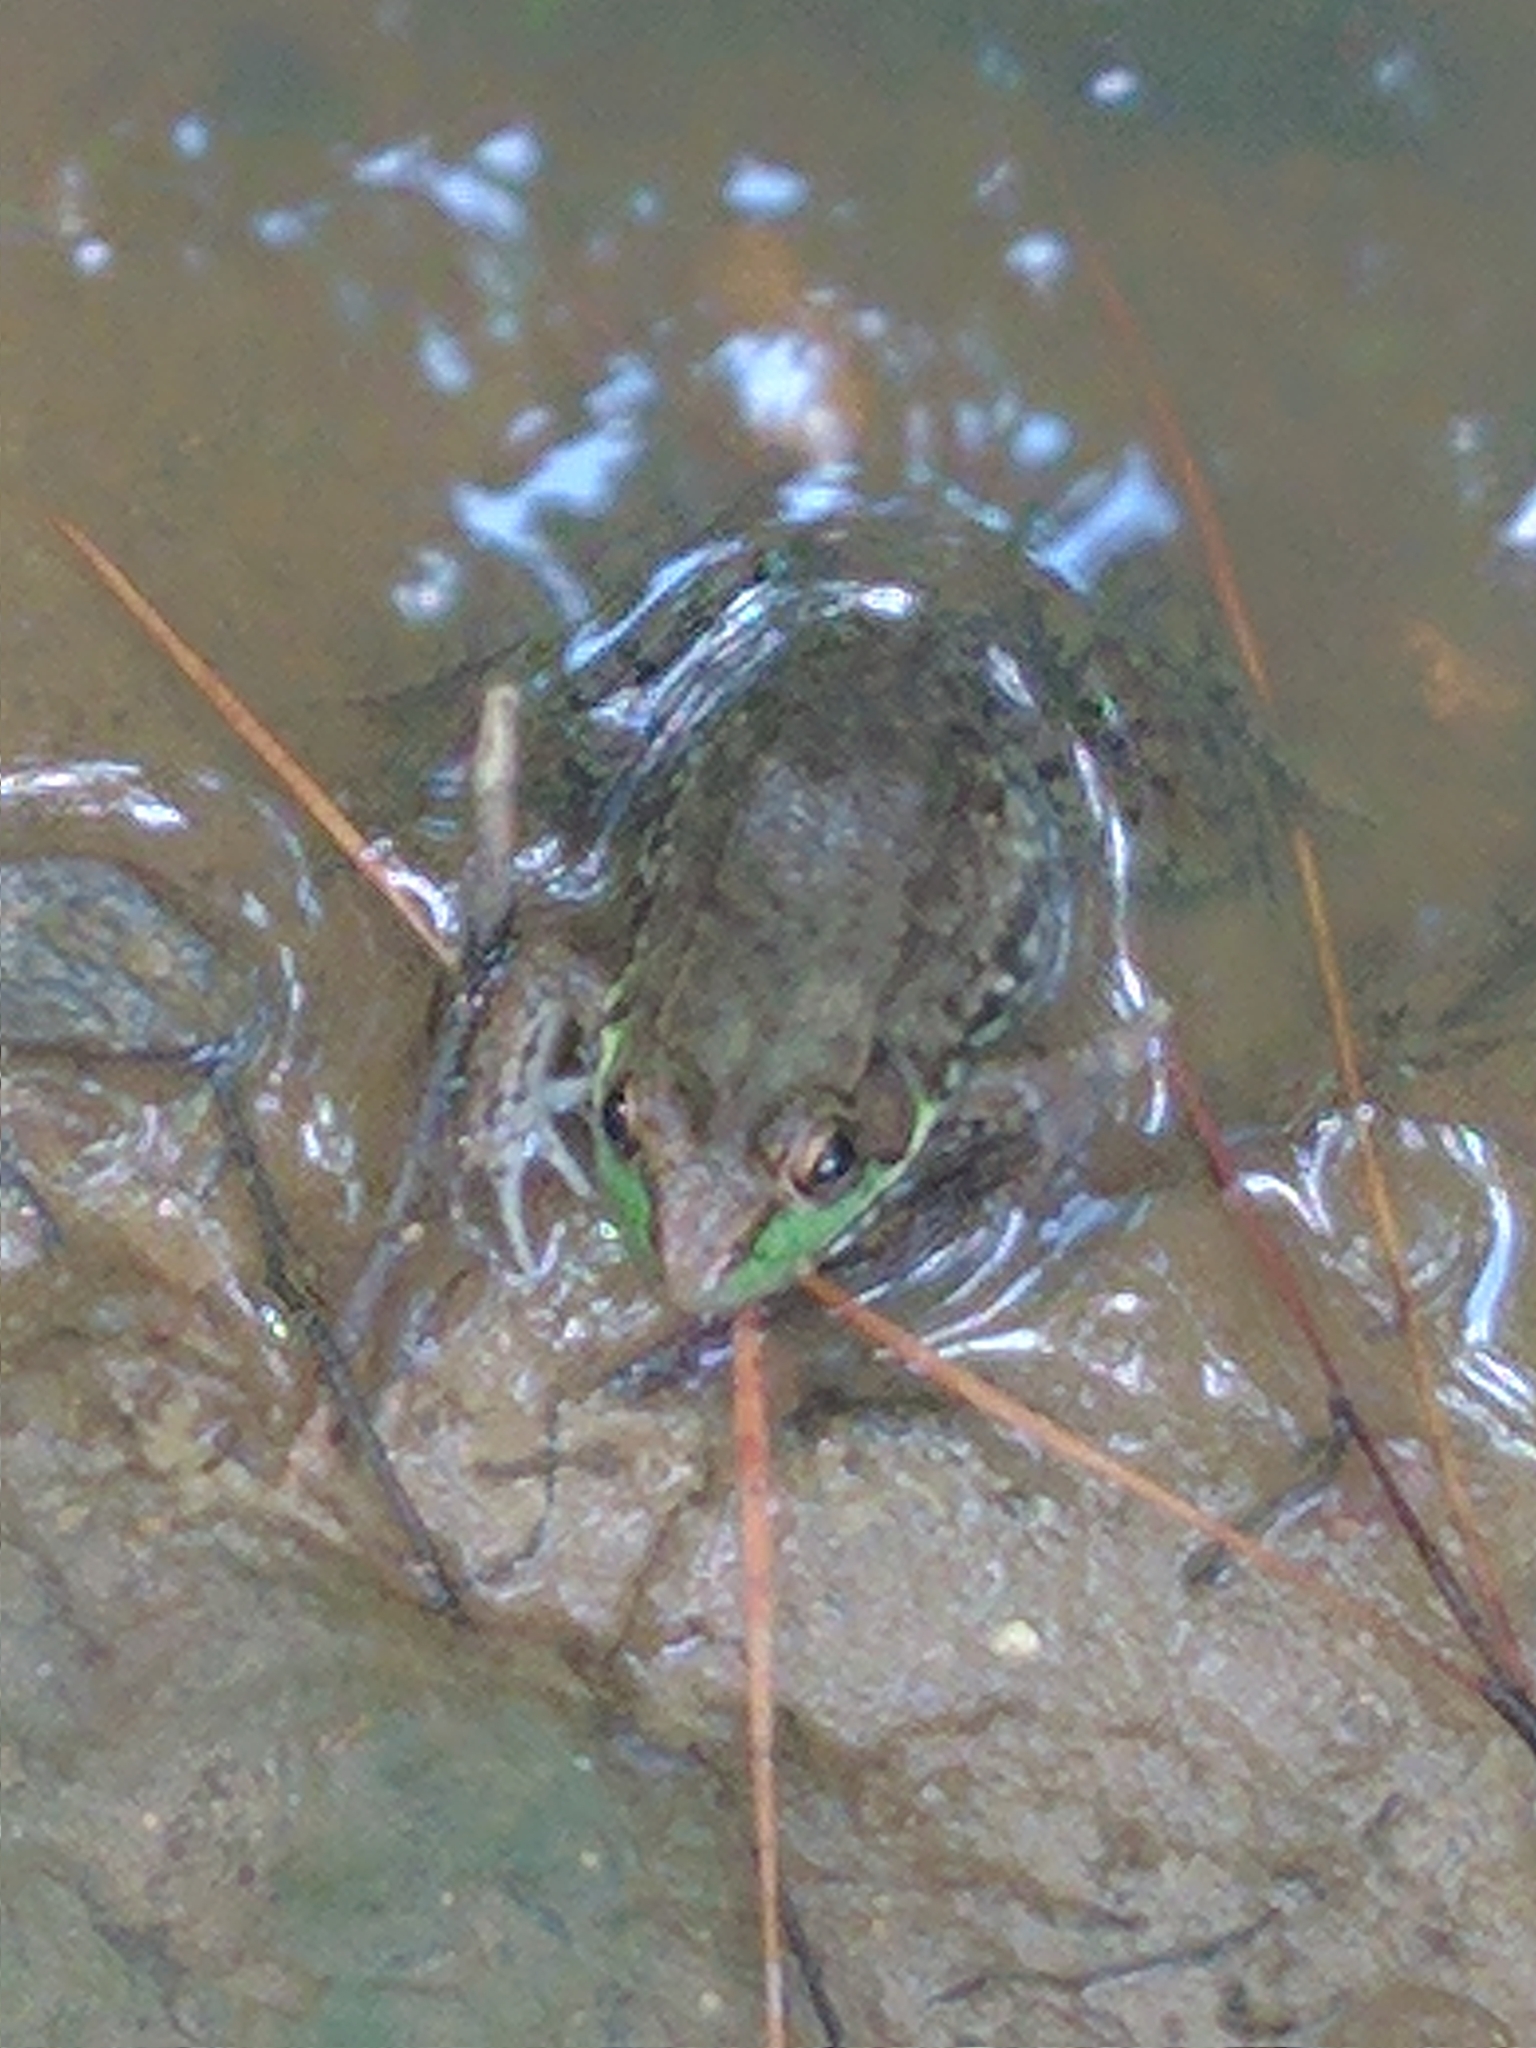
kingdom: Animalia
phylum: Chordata
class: Amphibia
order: Anura
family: Ranidae
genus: Lithobates
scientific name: Lithobates clamitans
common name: Green frog
